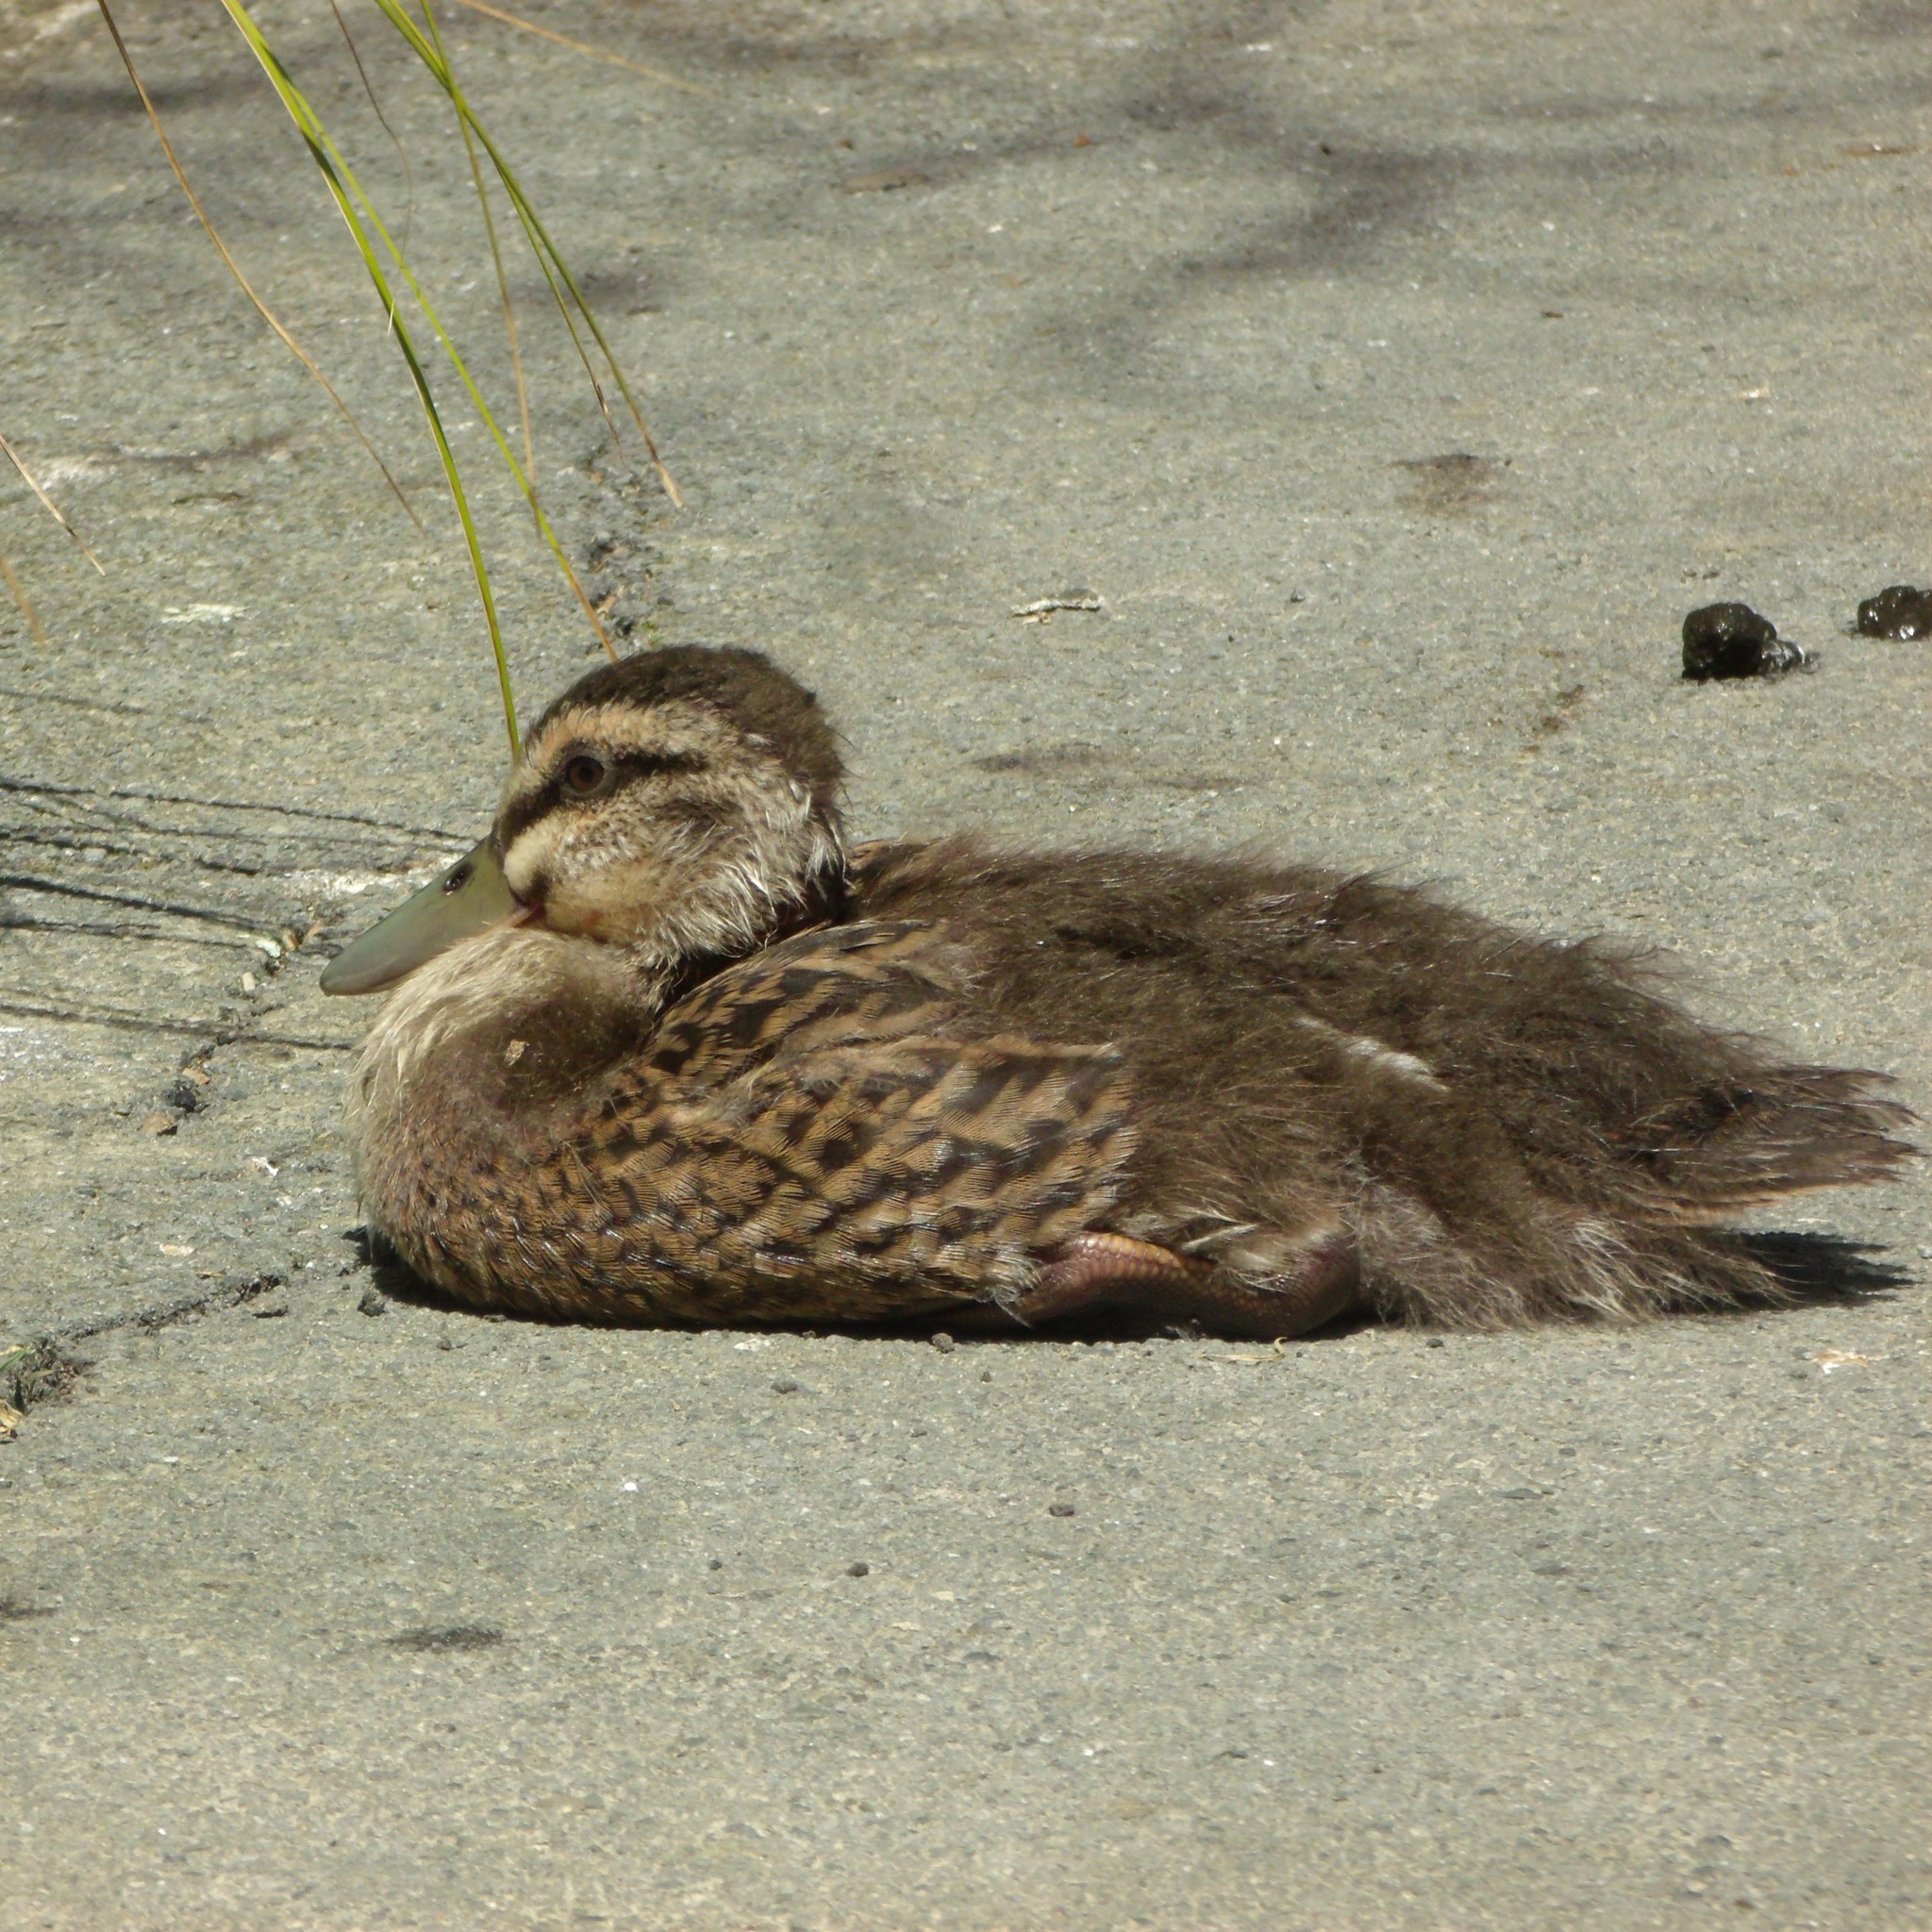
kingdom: Animalia
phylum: Chordata
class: Aves
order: Anseriformes
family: Anatidae
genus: Anas
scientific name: Anas
